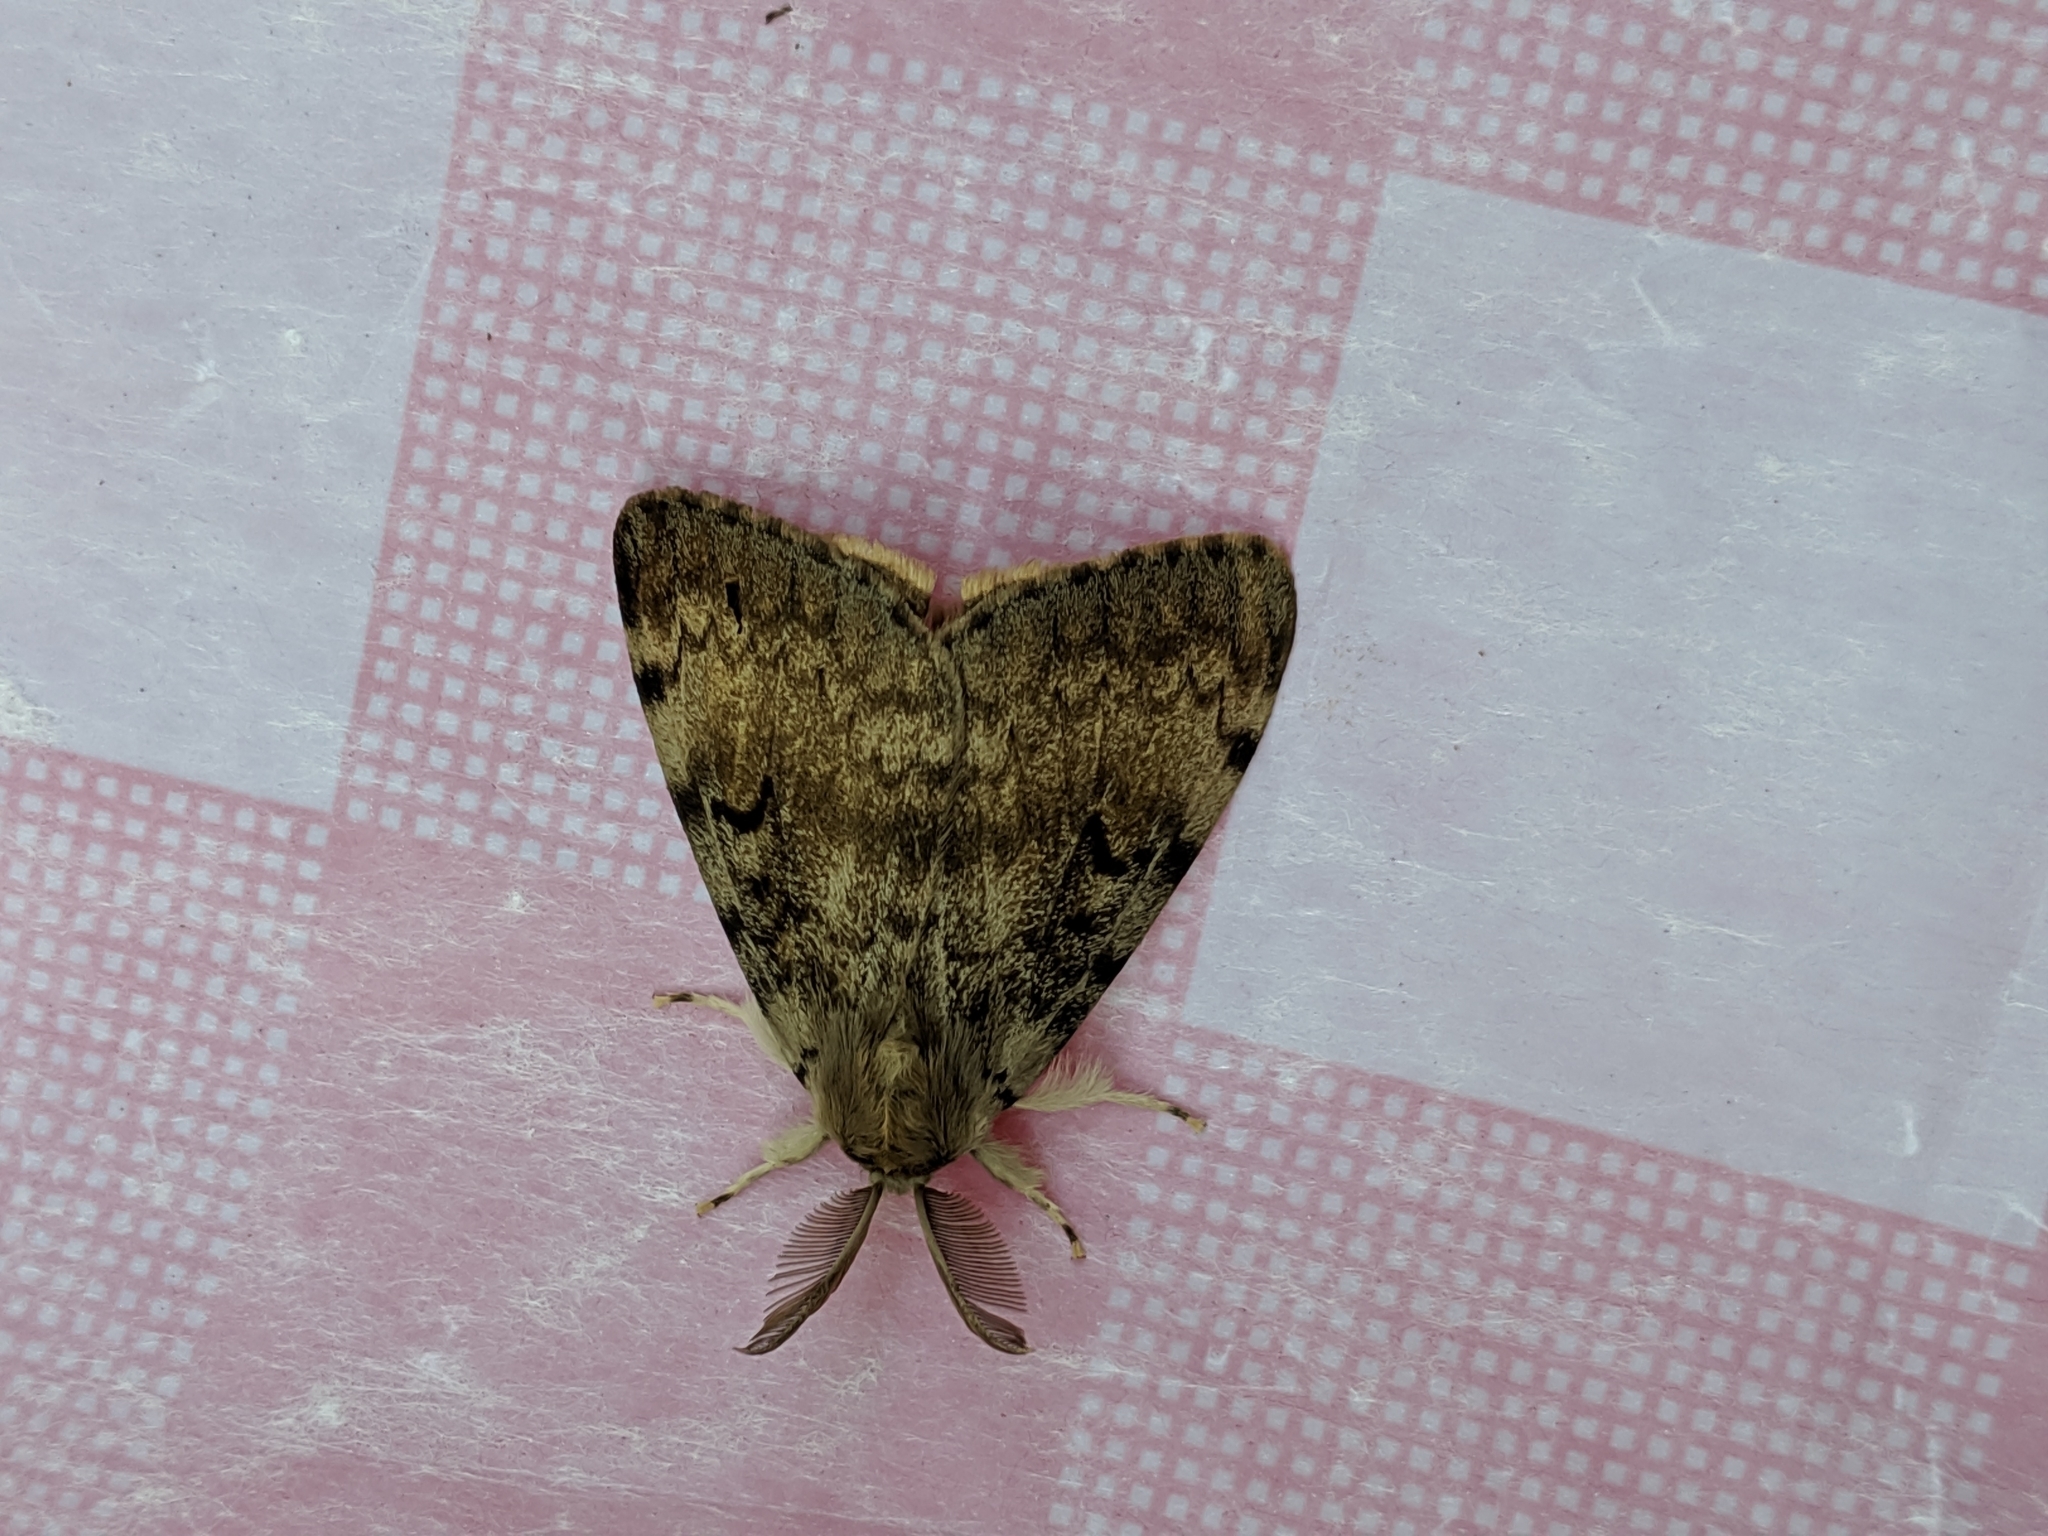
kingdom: Animalia
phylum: Arthropoda
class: Insecta
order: Lepidoptera
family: Erebidae
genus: Lymantria
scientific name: Lymantria dispar
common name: Gypsy moth
